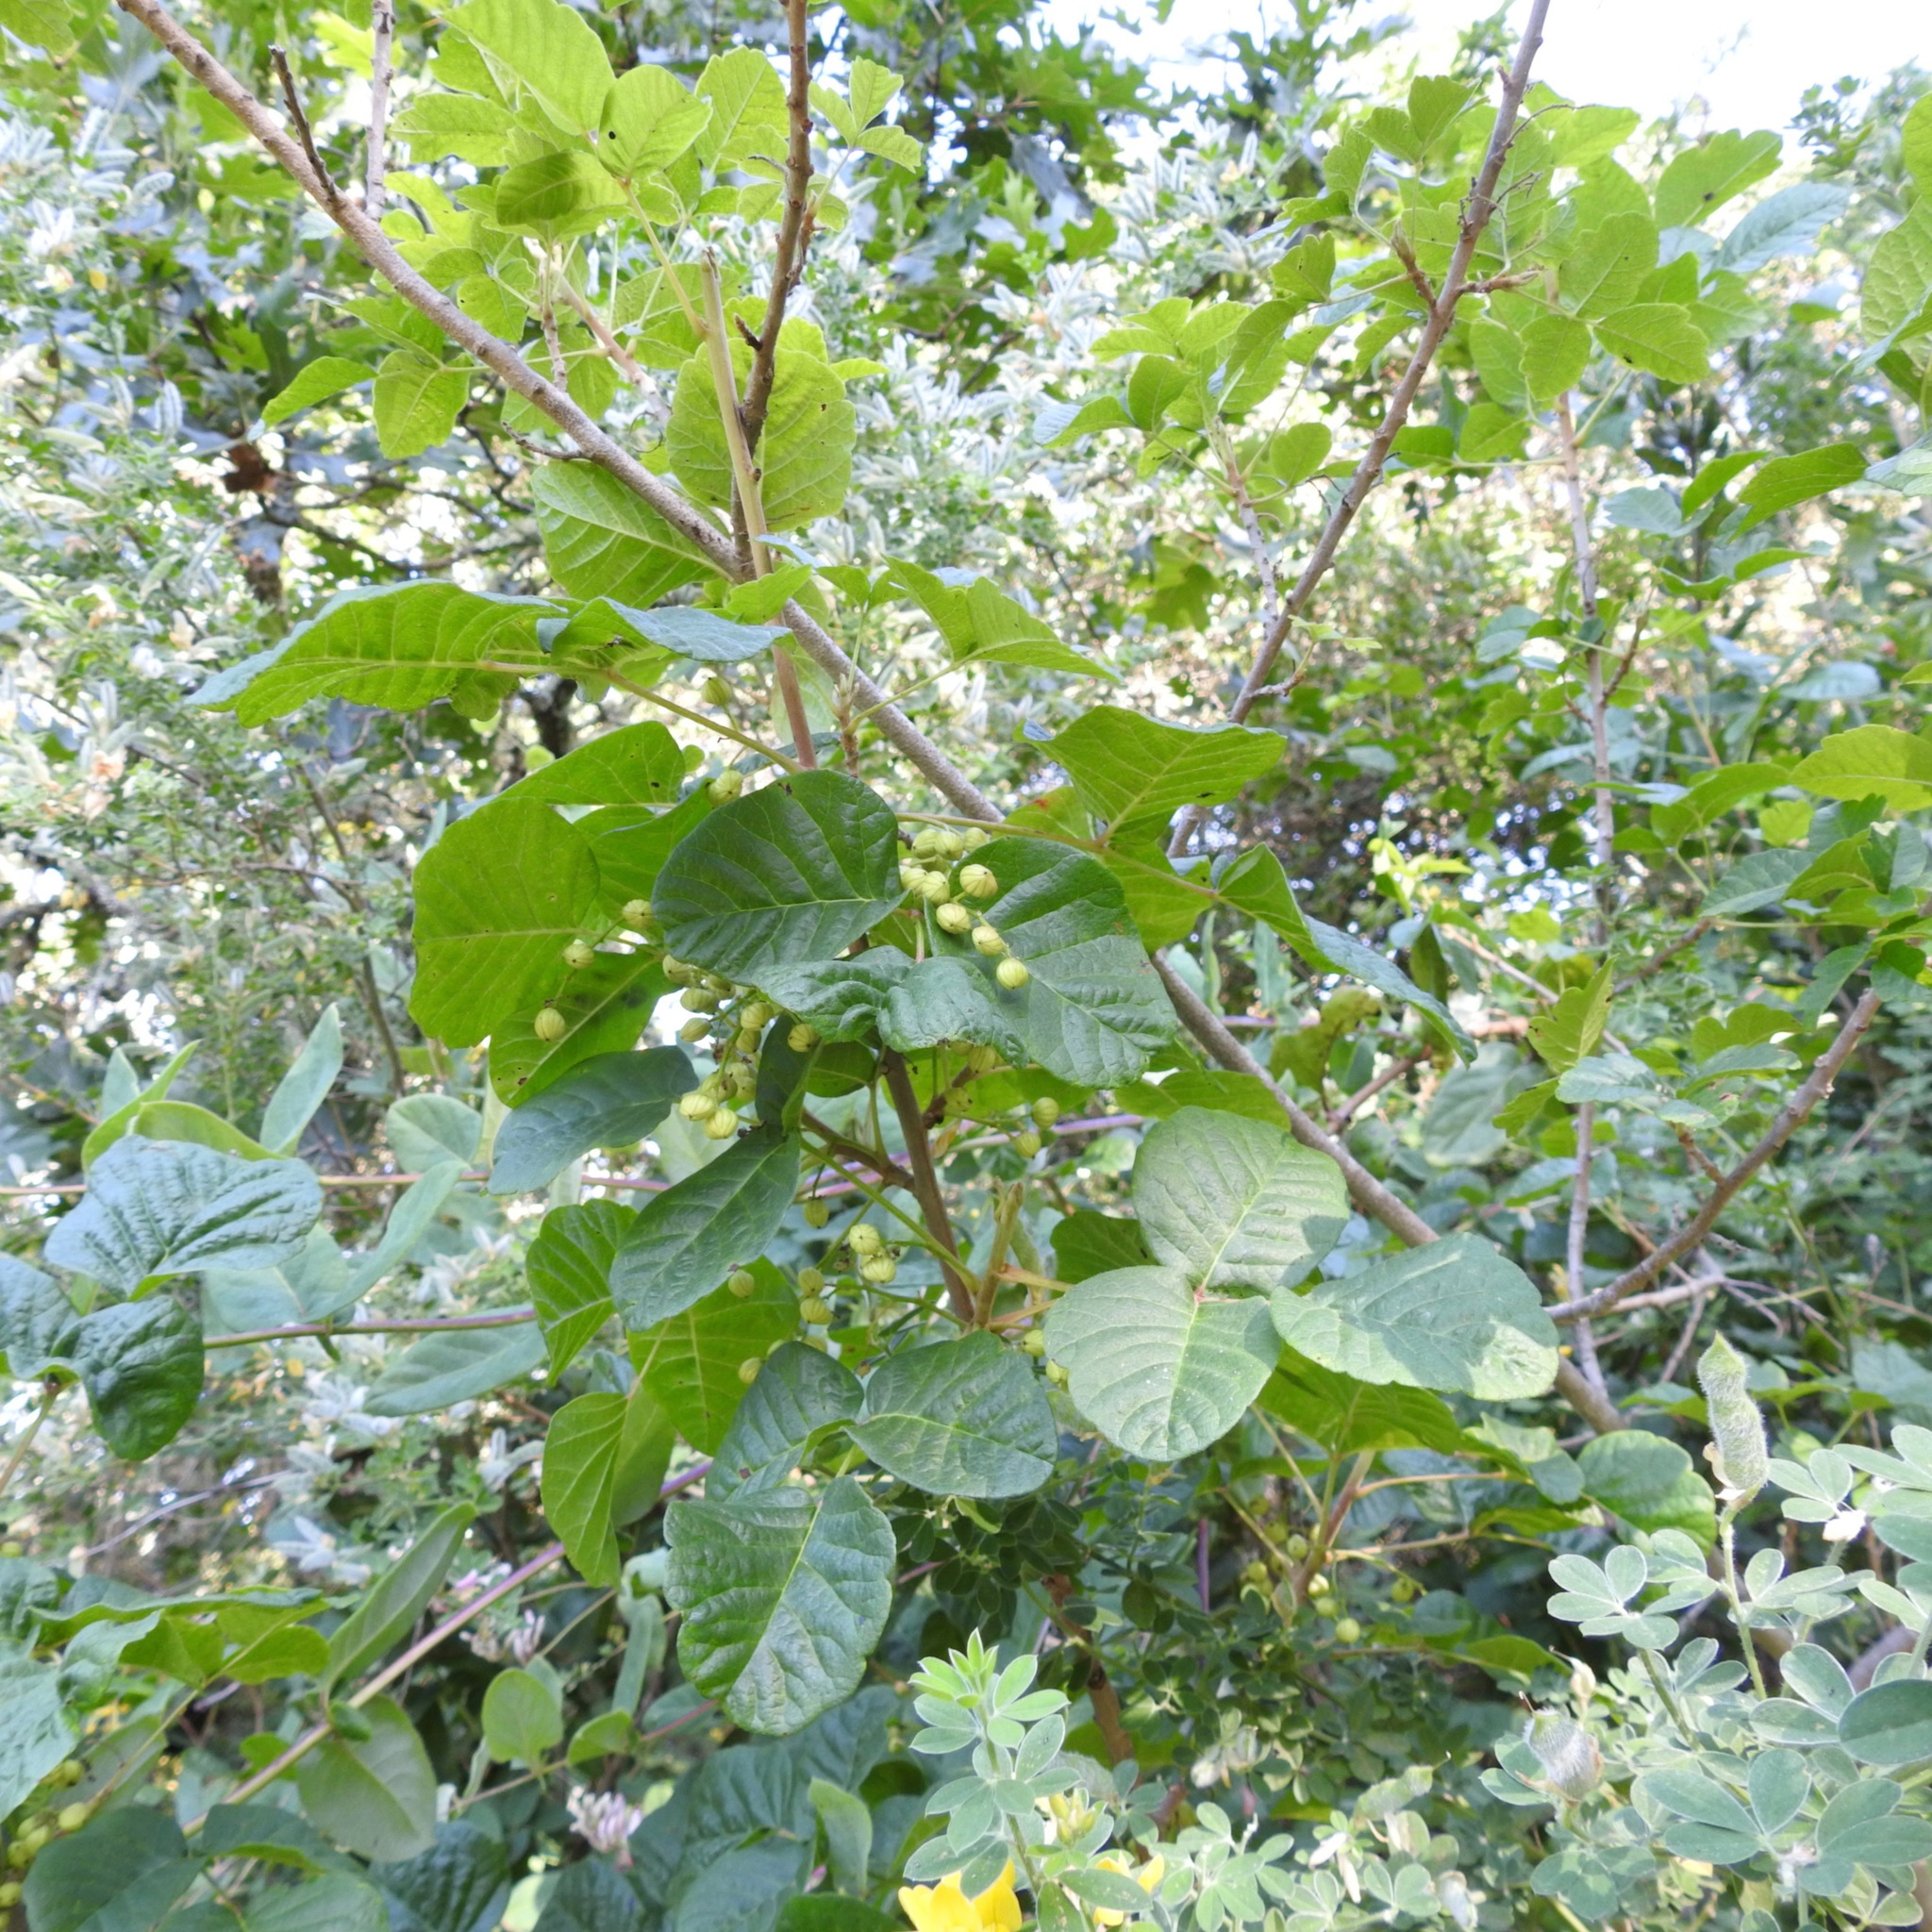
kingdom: Plantae
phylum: Tracheophyta
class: Magnoliopsida
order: Sapindales
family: Anacardiaceae
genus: Toxicodendron
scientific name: Toxicodendron diversilobum
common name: Pacific poison-oak
